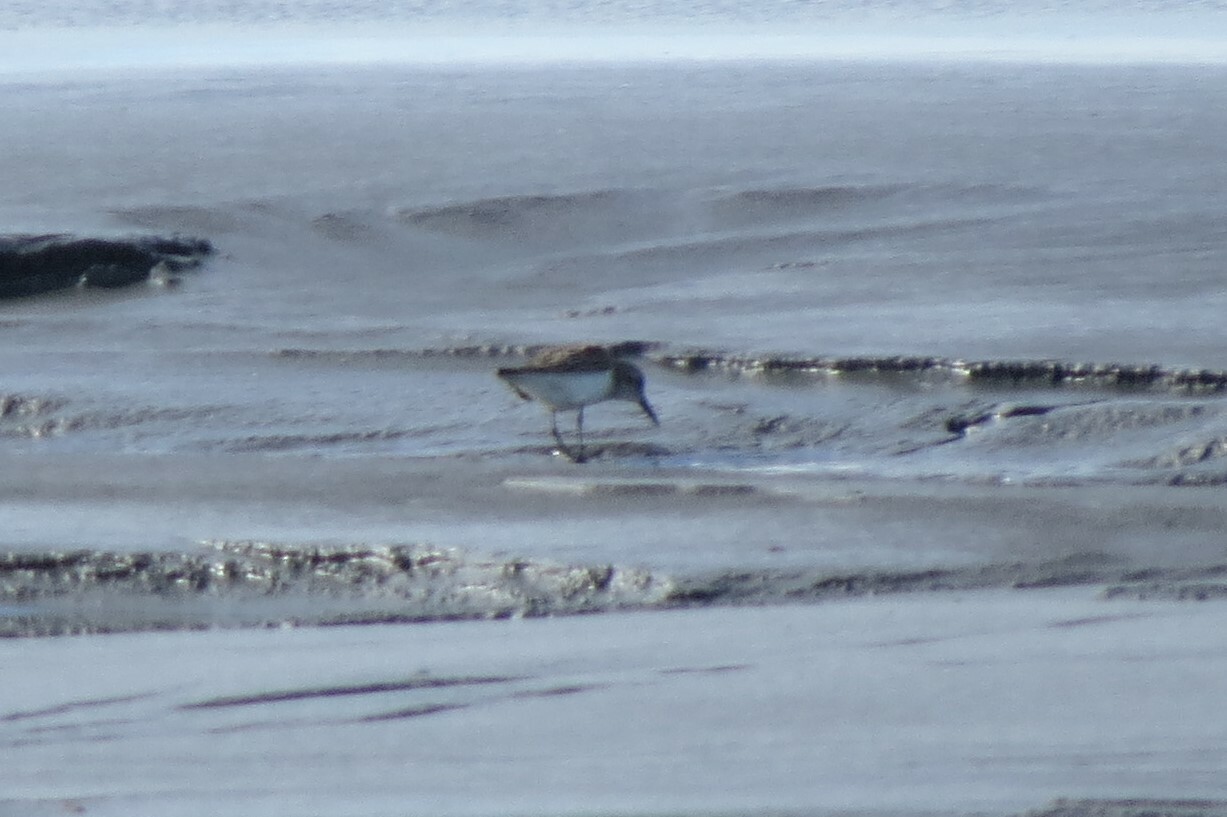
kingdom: Animalia
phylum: Chordata
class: Aves
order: Charadriiformes
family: Scolopacidae
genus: Calidris
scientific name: Calidris pusilla
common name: Semipalmated sandpiper
